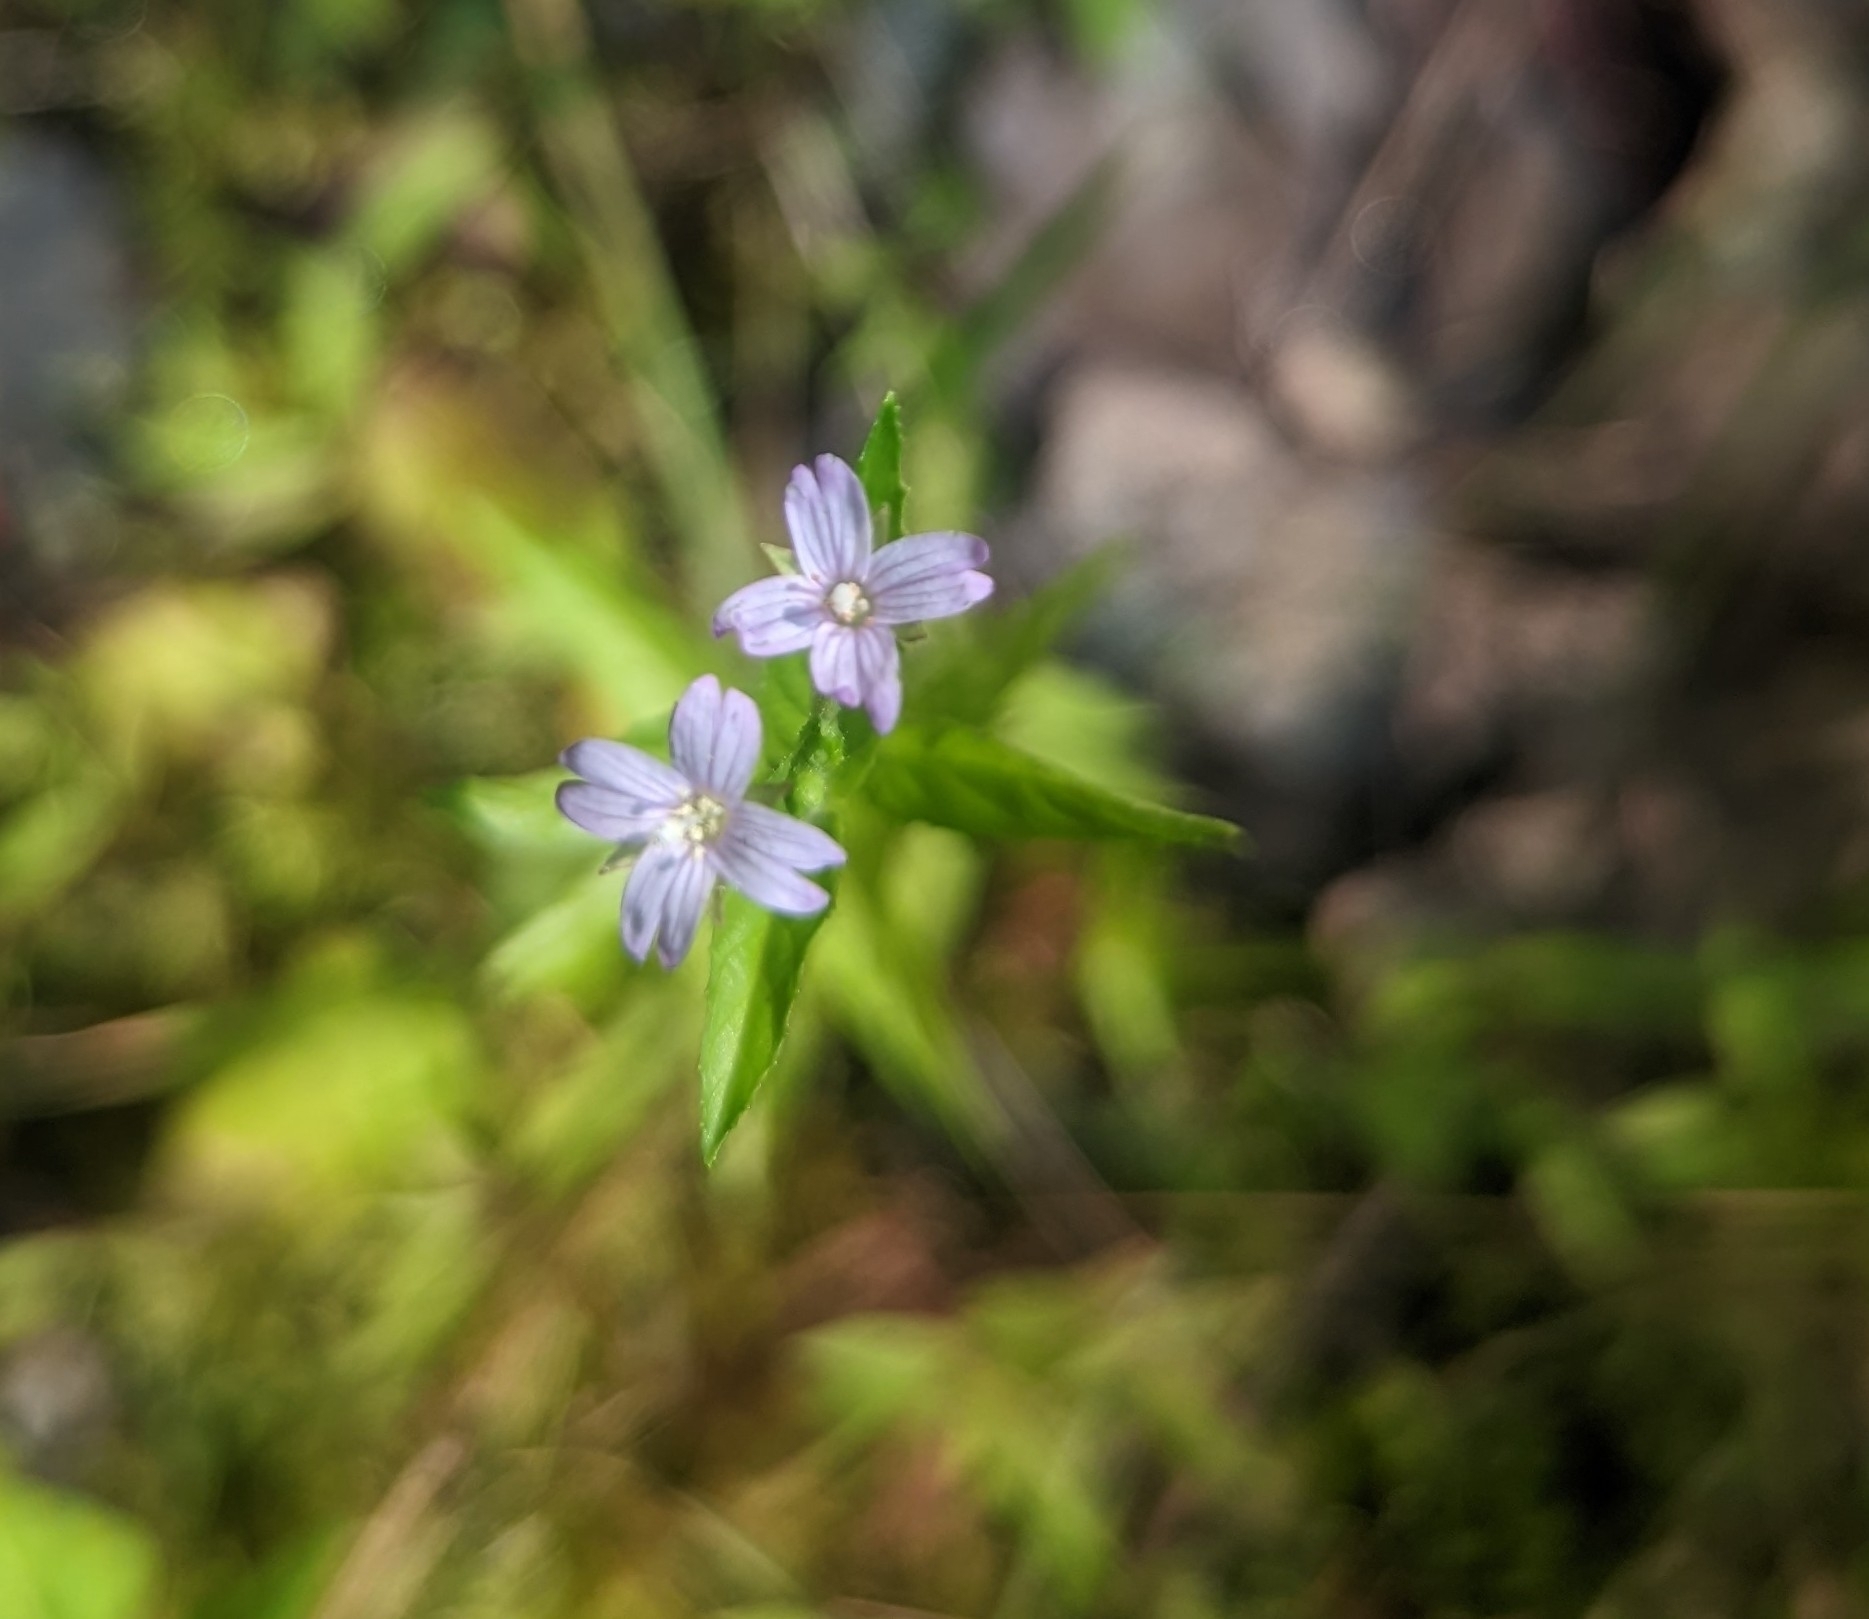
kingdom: Plantae
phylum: Tracheophyta
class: Magnoliopsida
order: Myrtales
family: Onagraceae
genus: Epilobium
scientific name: Epilobium ciliatum
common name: American willowherb
